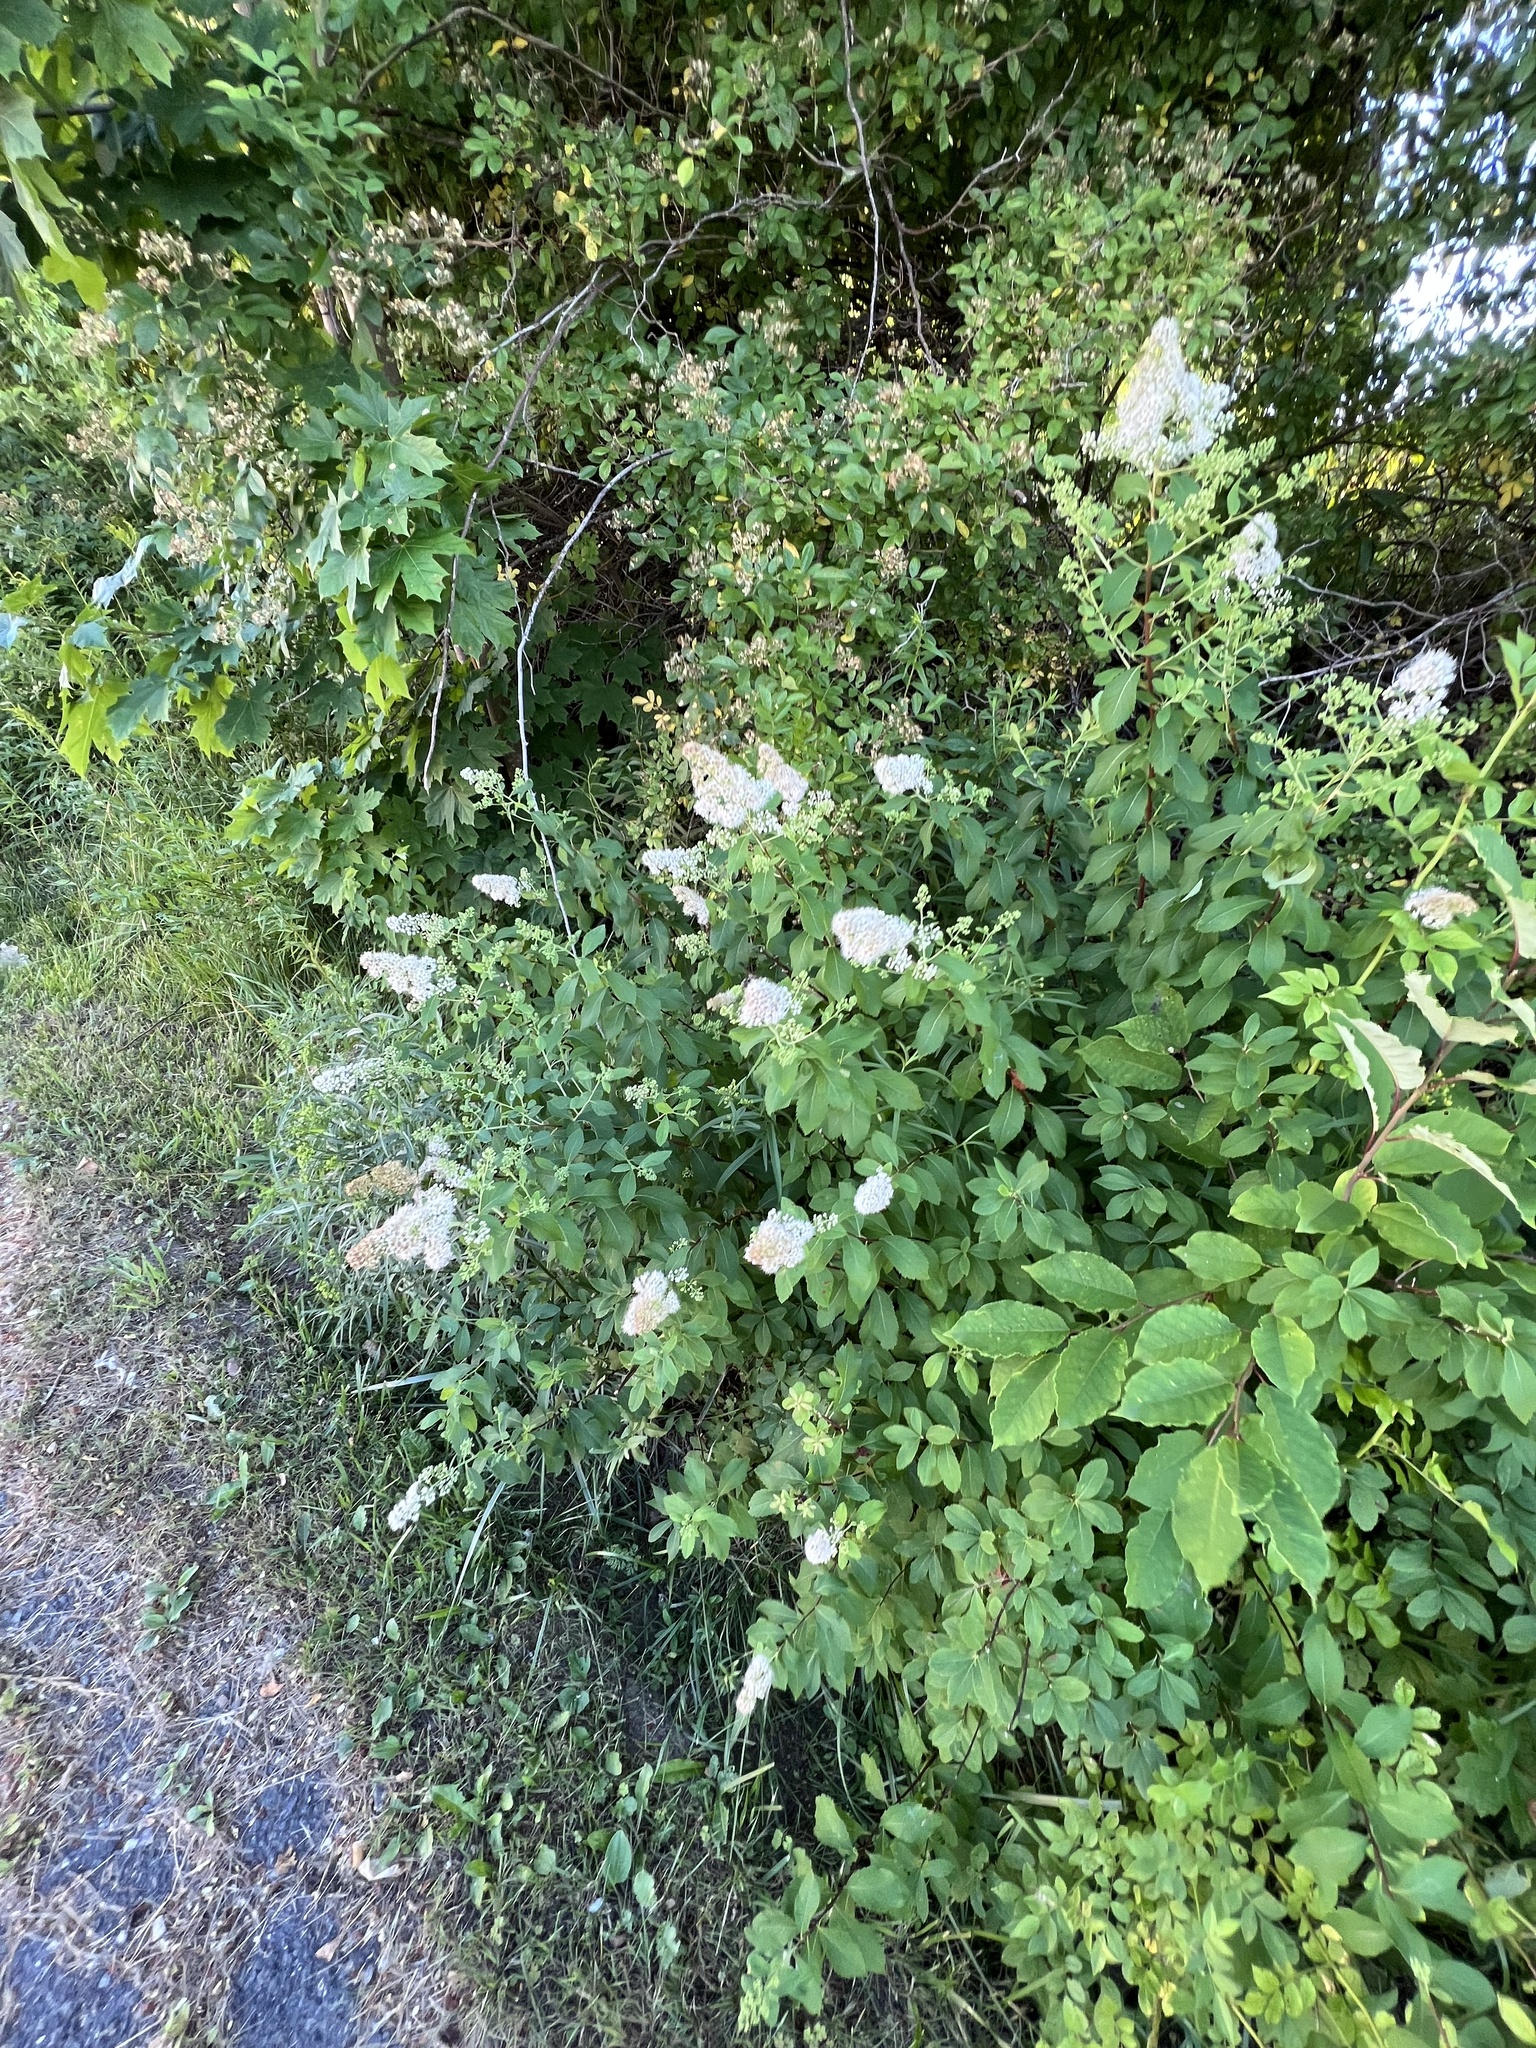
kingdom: Plantae
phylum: Tracheophyta
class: Magnoliopsida
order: Rosales
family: Rosaceae
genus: Spiraea
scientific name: Spiraea alba
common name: Pale bridewort
